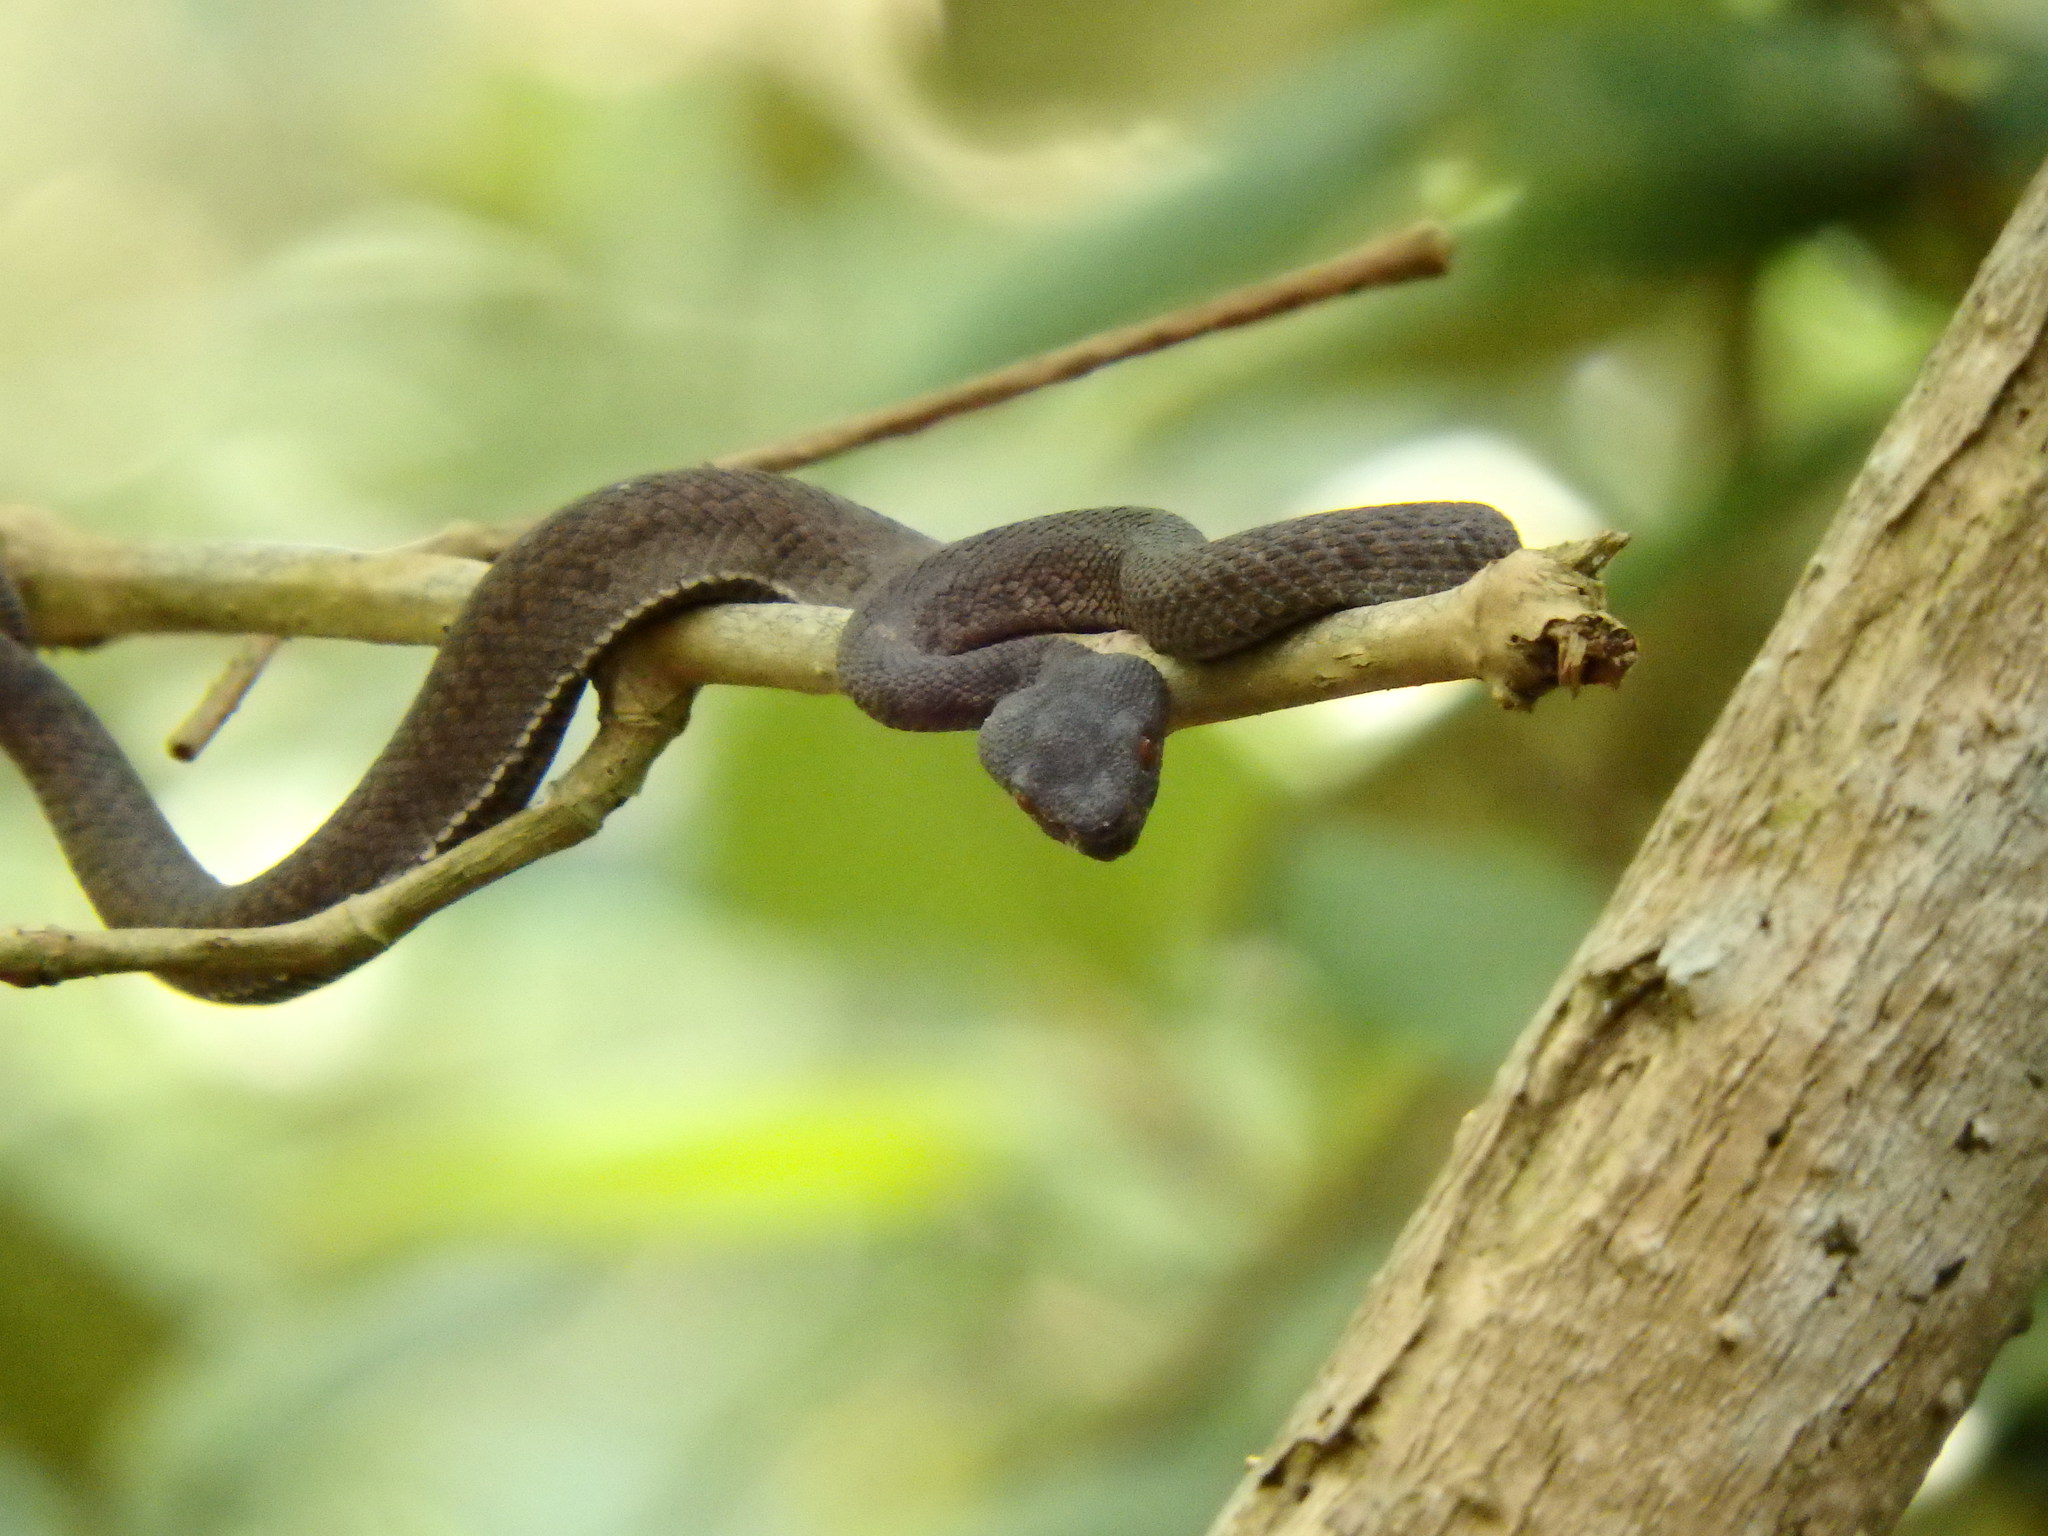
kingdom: Animalia
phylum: Chordata
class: Squamata
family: Viperidae
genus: Trimeresurus
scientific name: Trimeresurus purpureomaculatus
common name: Shore pit viper
